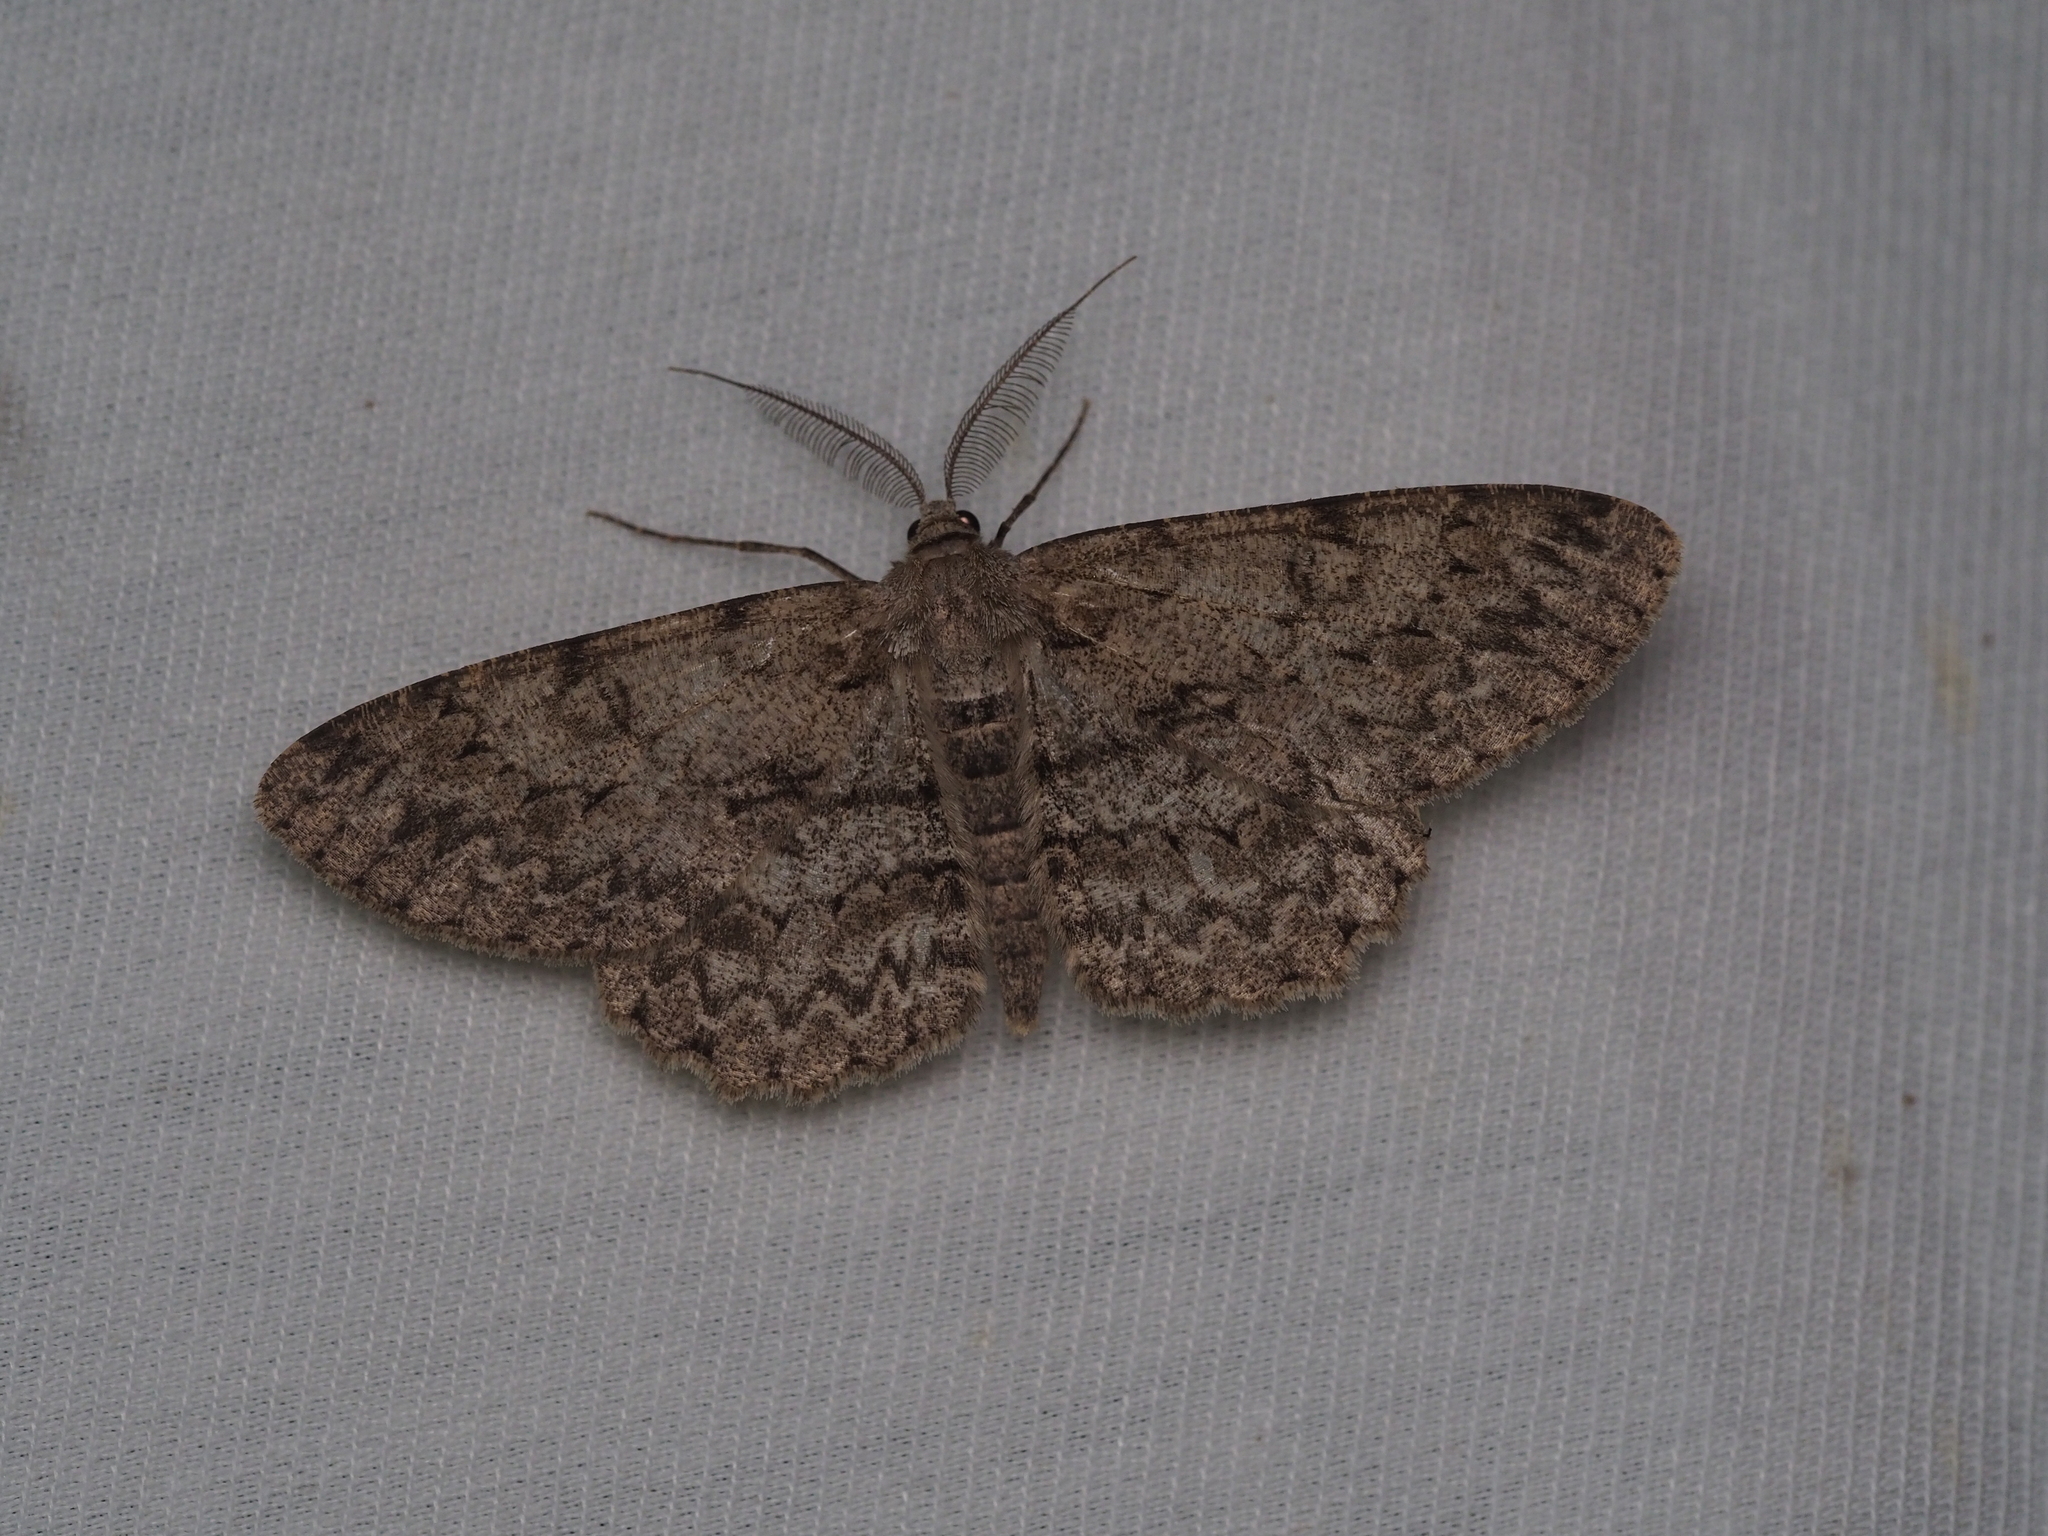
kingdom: Animalia
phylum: Arthropoda
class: Insecta
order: Lepidoptera
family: Geometridae
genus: Hypomecis
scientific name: Hypomecis punctinalis
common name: Pale oak beauty
